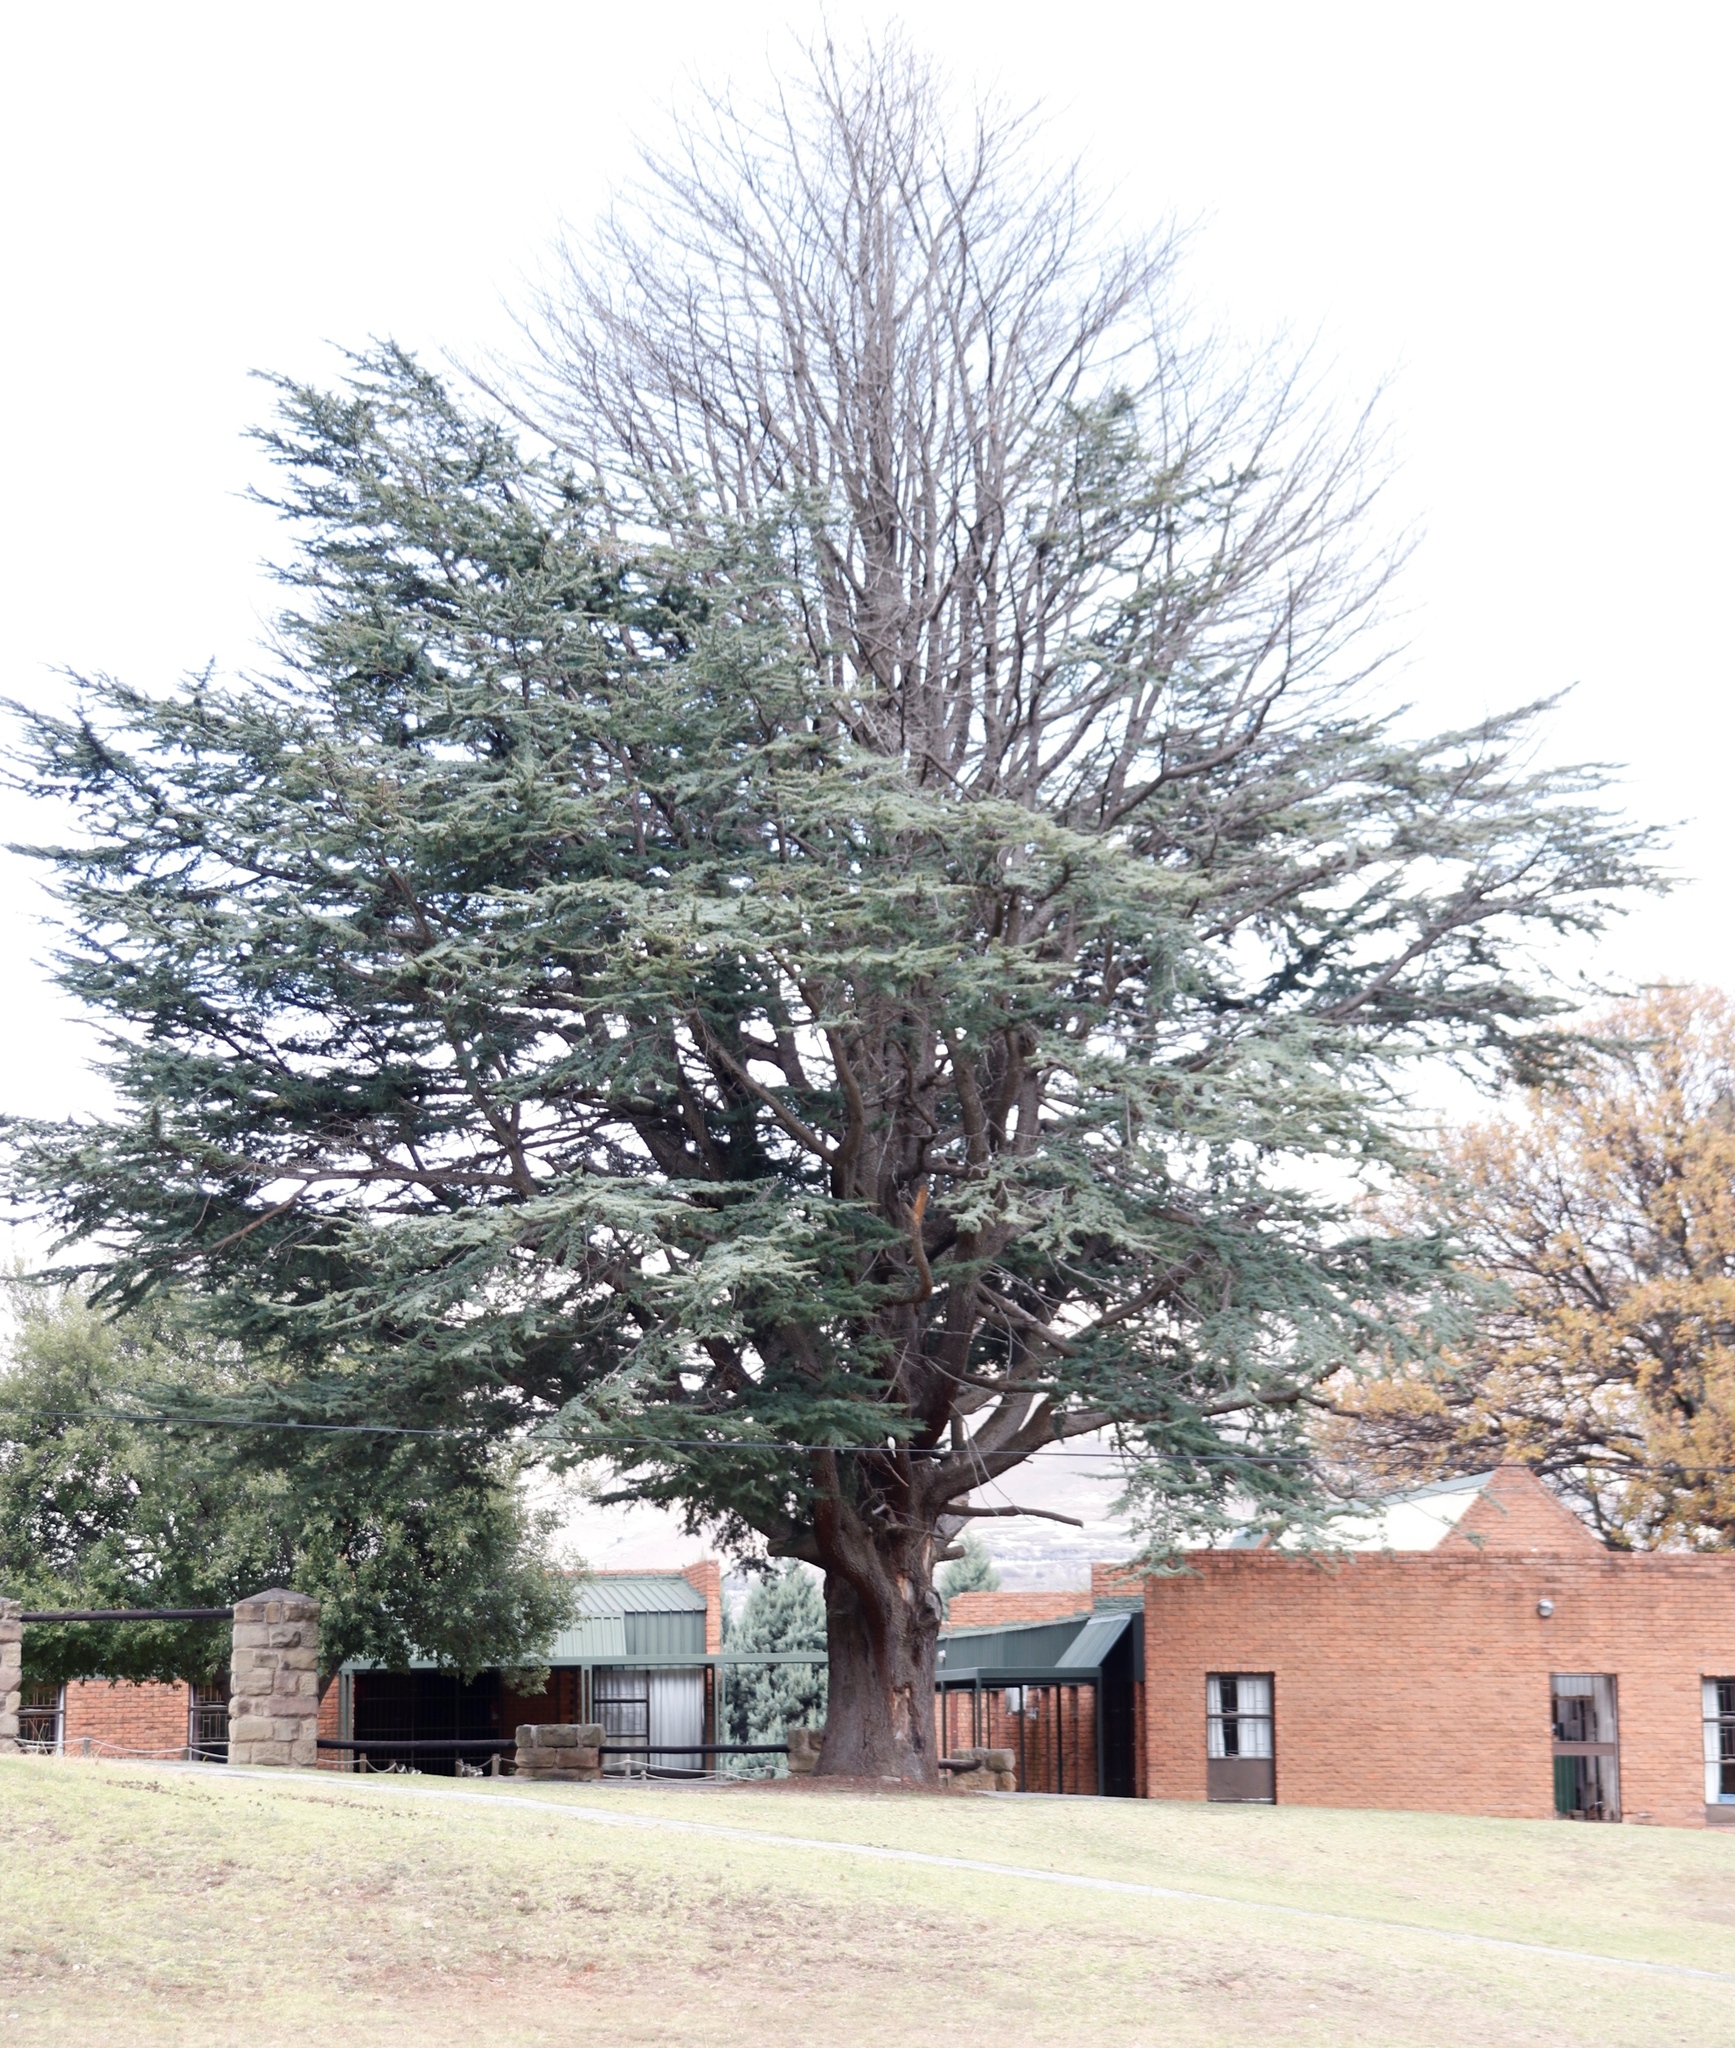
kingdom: Plantae
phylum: Tracheophyta
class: Pinopsida
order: Pinales
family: Pinaceae
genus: Cedrus
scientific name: Cedrus libani
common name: Cedar-of-lebanon
